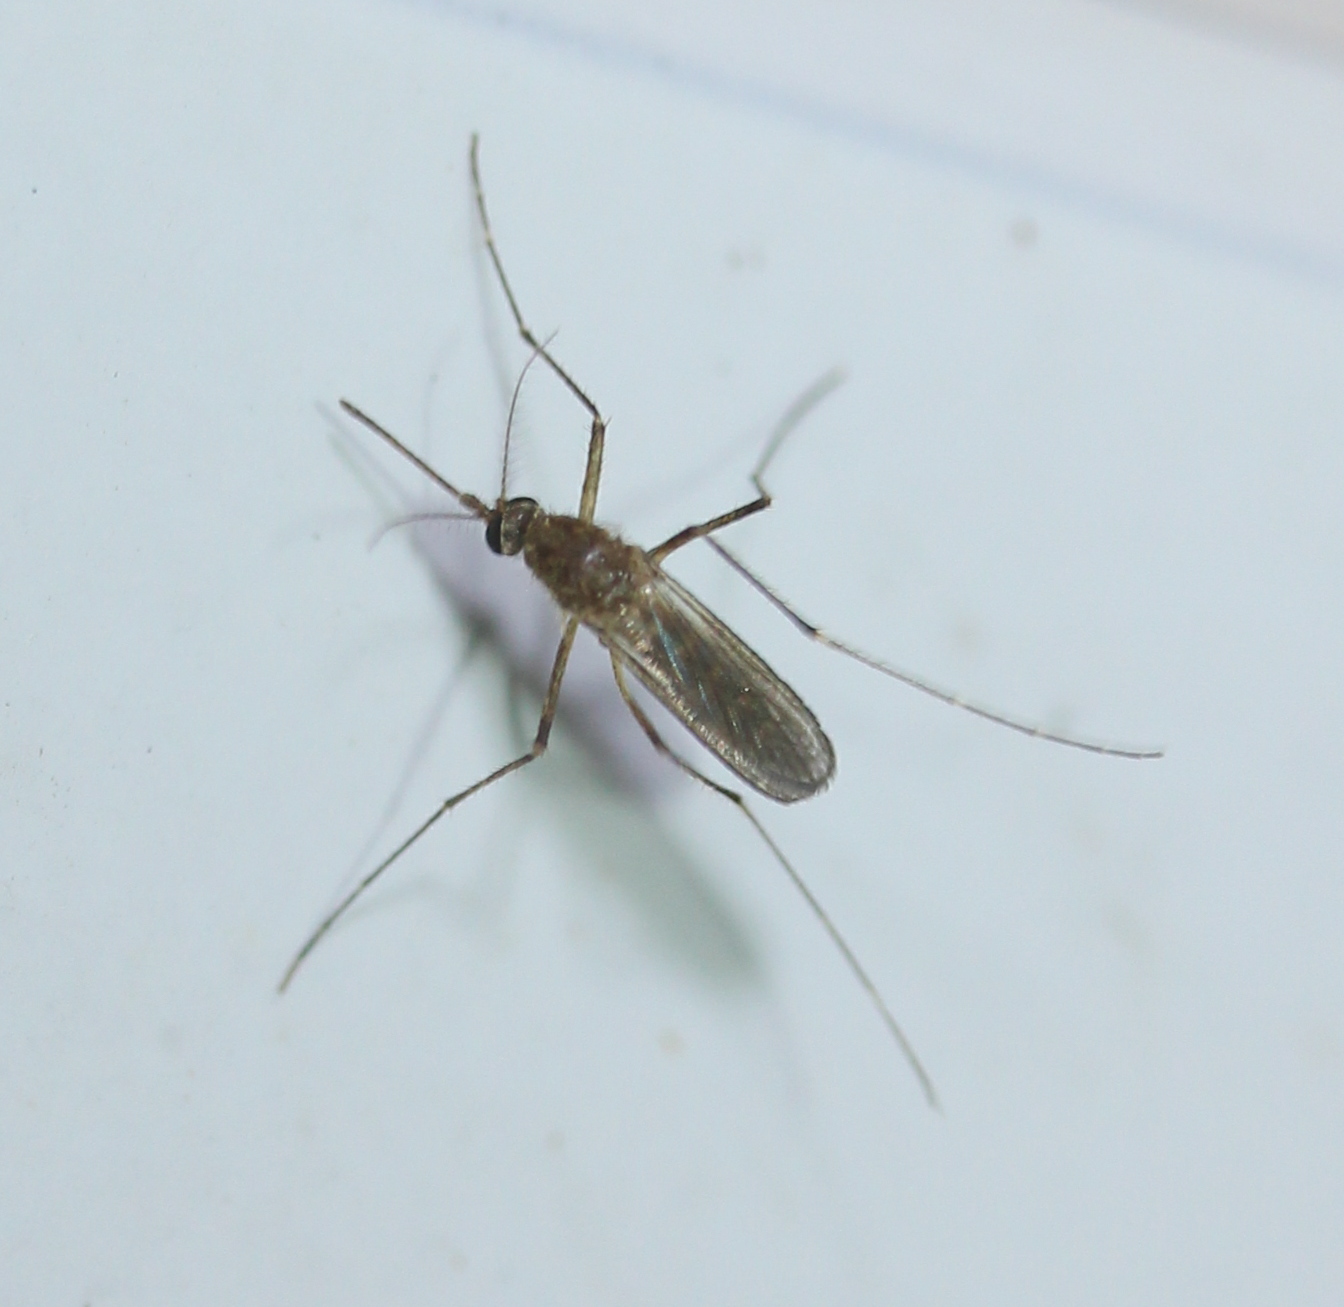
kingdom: Animalia
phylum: Arthropoda
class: Insecta
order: Diptera
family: Culicidae
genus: Aedes
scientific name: Aedes vexans
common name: Inland floodwater mosquito
